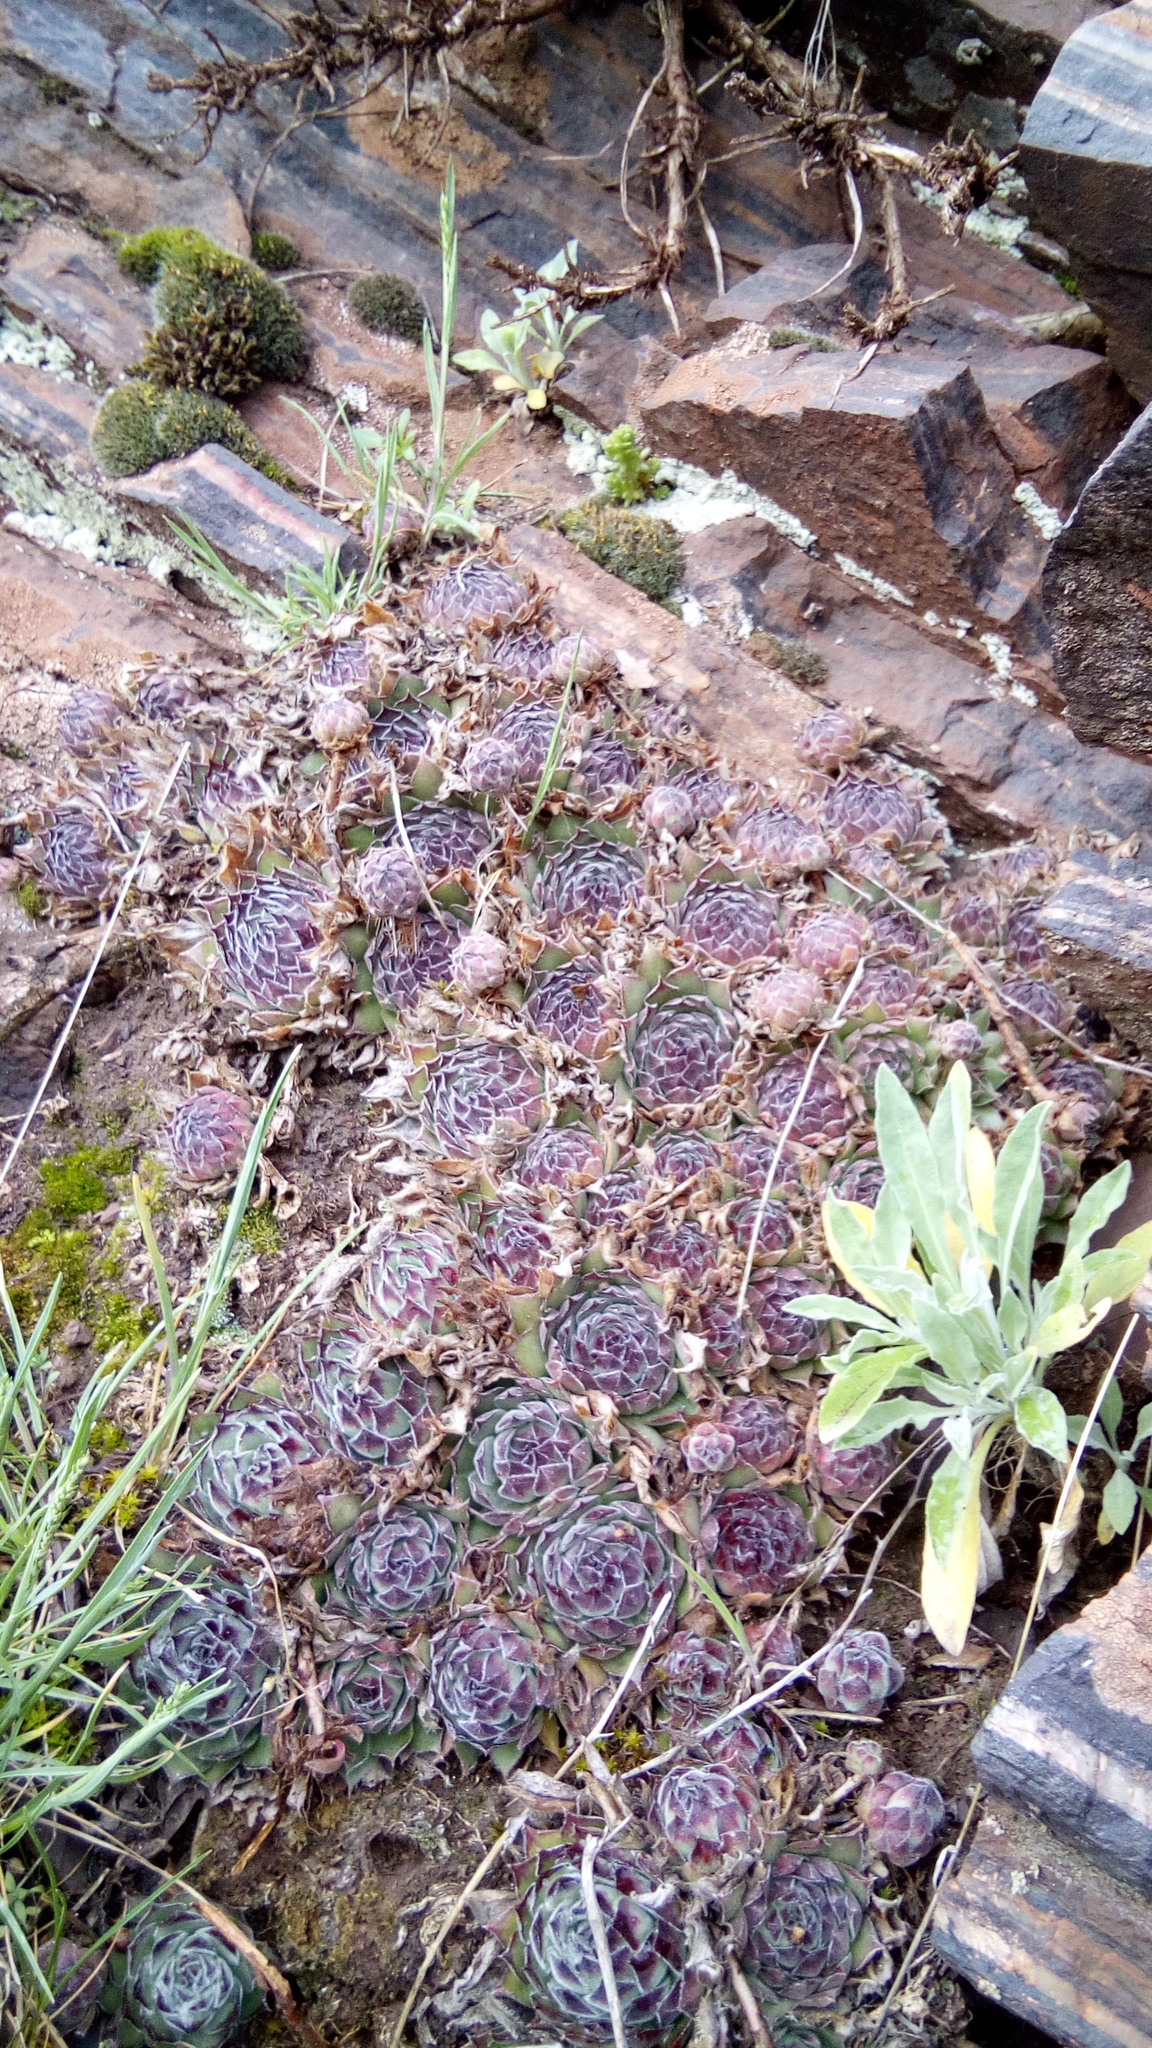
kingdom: Plantae
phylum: Tracheophyta
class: Magnoliopsida
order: Saxifragales
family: Crassulaceae
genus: Sempervivum
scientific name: Sempervivum ruthenicum
